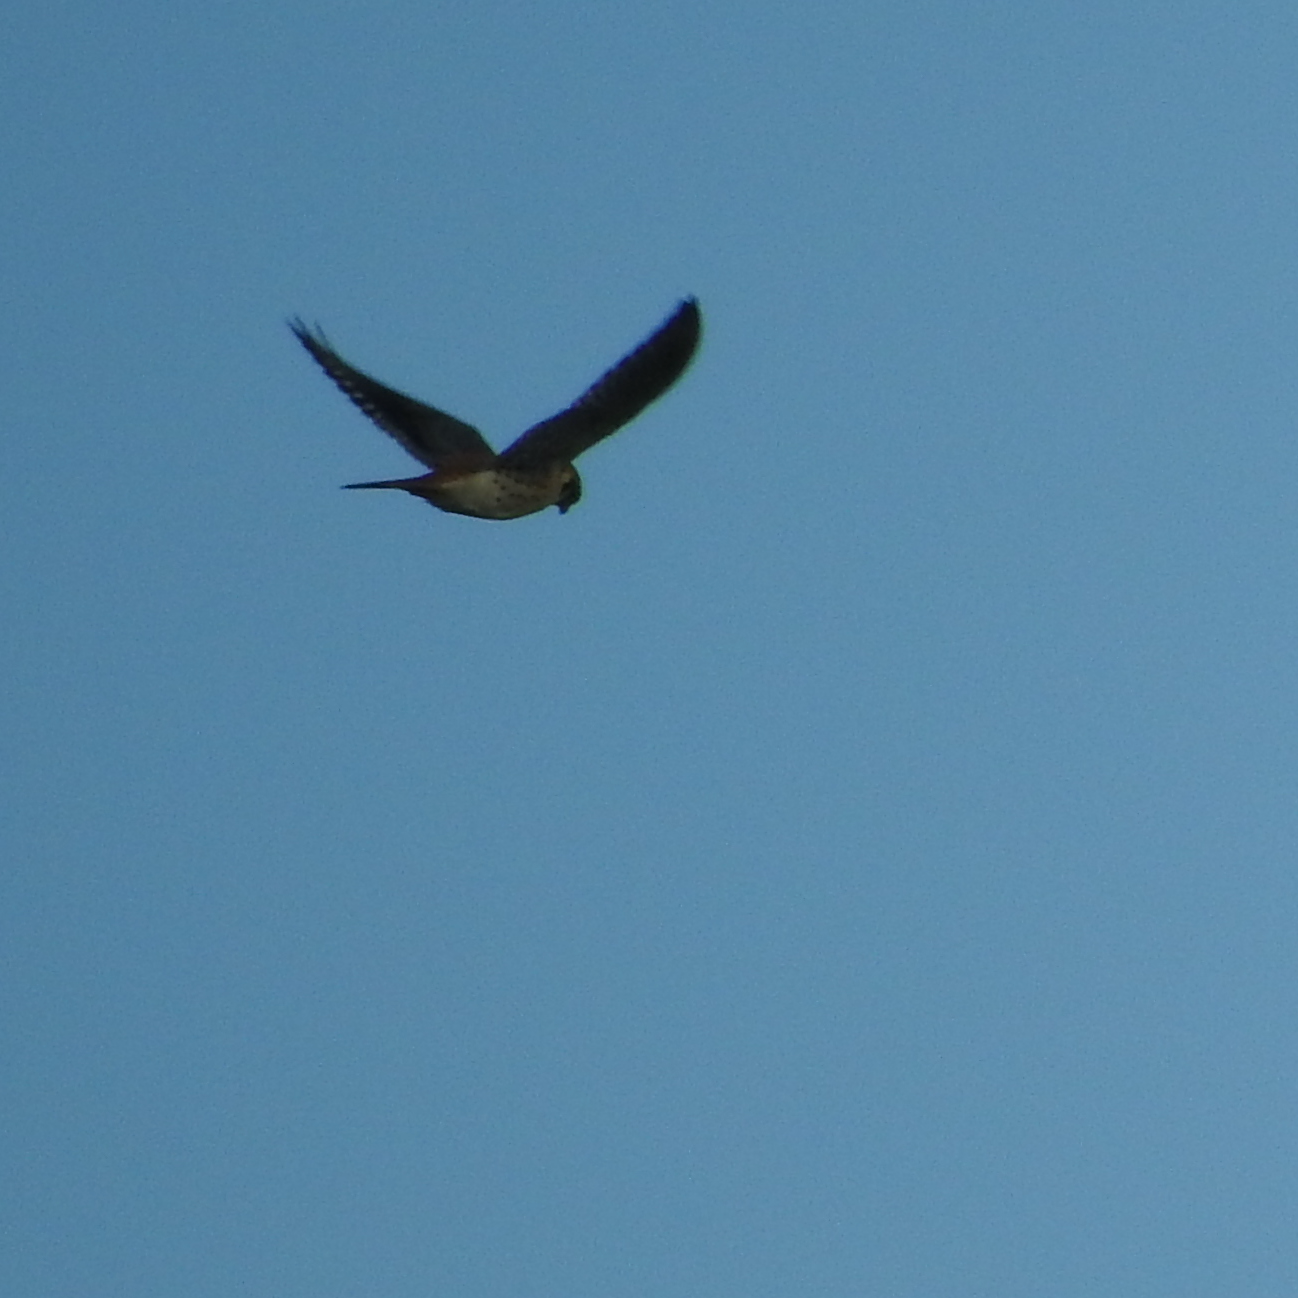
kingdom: Animalia
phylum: Chordata
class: Aves
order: Falconiformes
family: Falconidae
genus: Falco
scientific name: Falco sparverius
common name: American kestrel
